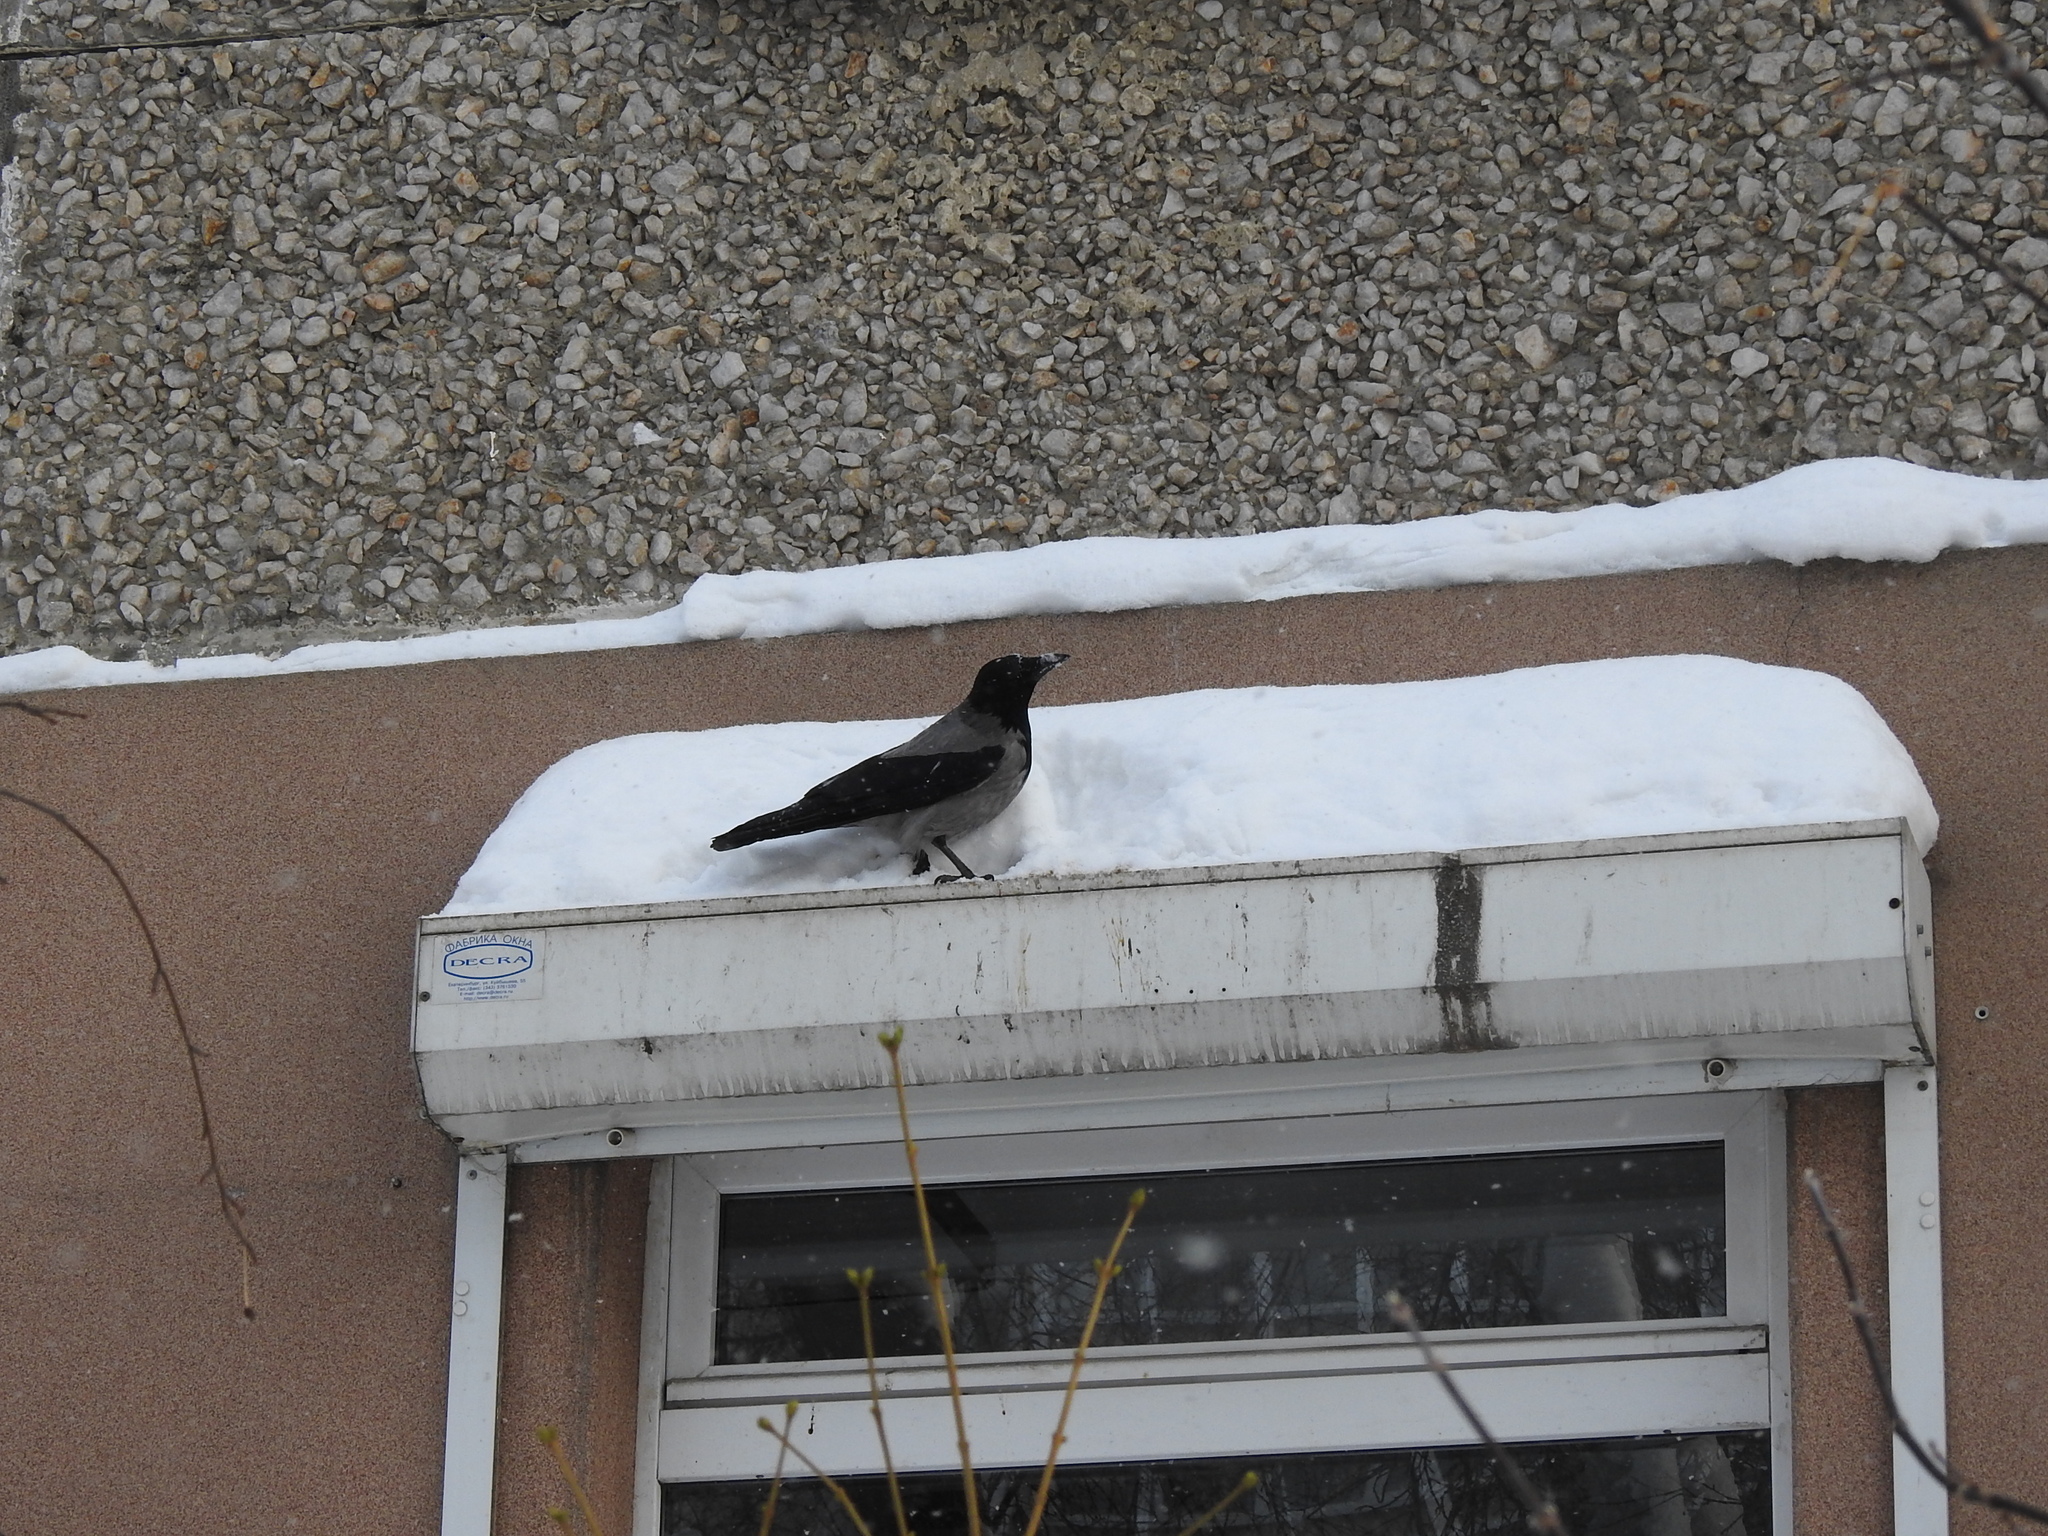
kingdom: Animalia
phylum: Chordata
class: Aves
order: Passeriformes
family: Corvidae
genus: Corvus
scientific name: Corvus cornix
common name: Hooded crow
